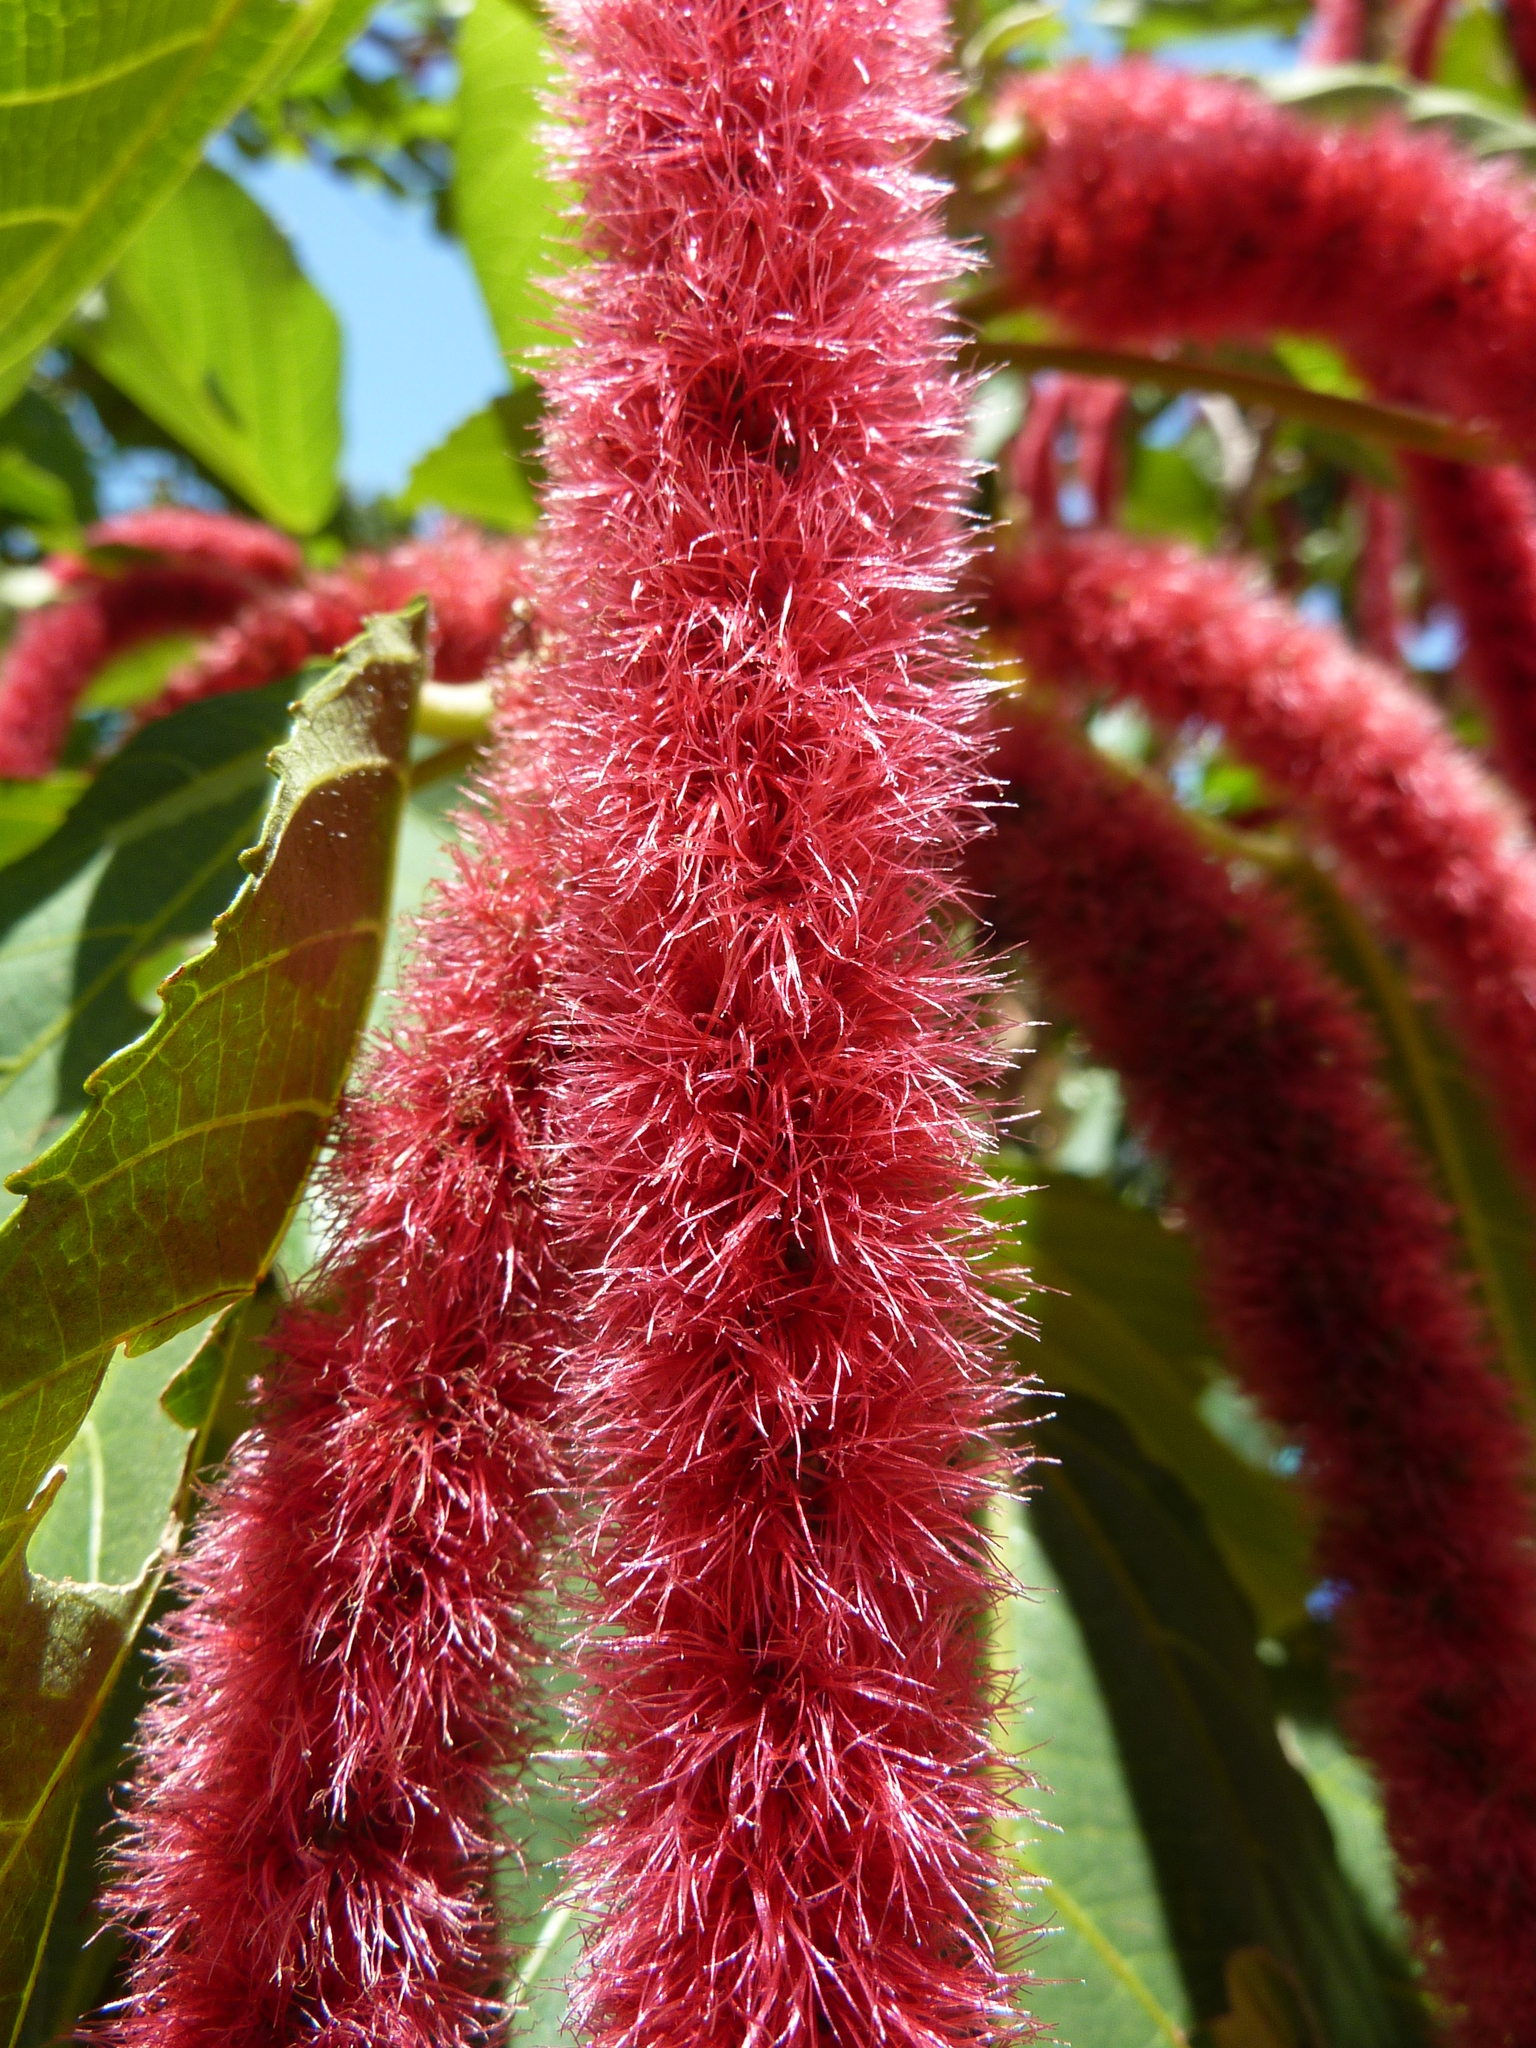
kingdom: Plantae
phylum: Tracheophyta
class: Magnoliopsida
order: Malpighiales
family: Euphorbiaceae
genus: Acalypha
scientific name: Acalypha hispida
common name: Chenilleplant
